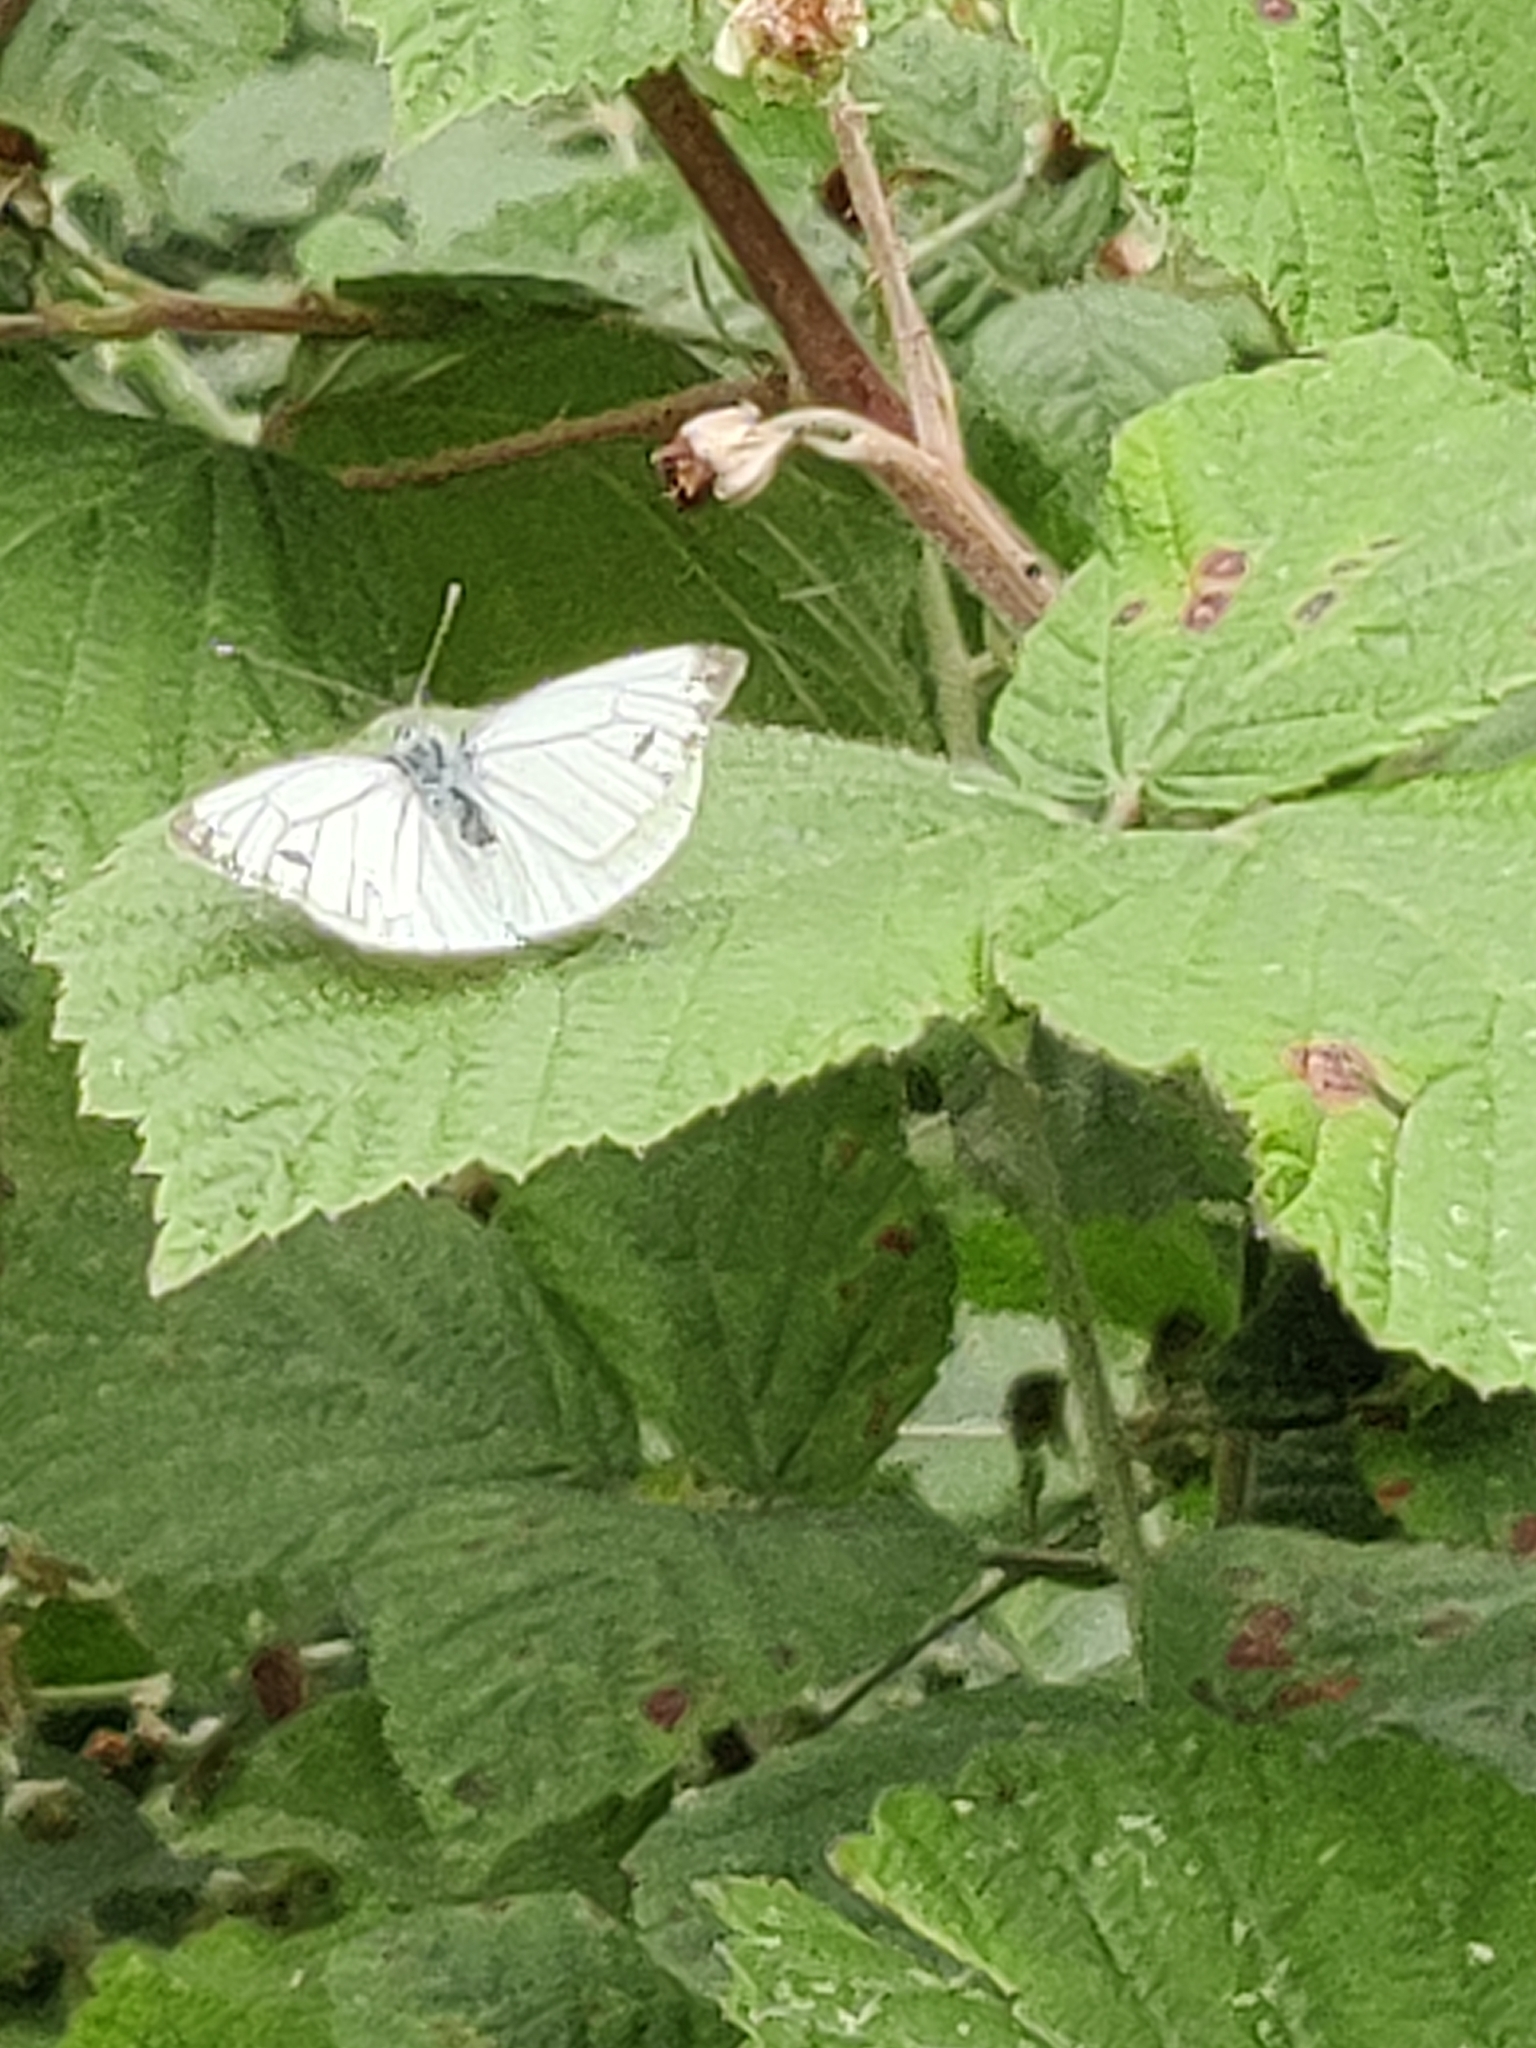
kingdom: Animalia
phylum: Arthropoda
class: Insecta
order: Lepidoptera
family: Pieridae
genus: Pieris
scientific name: Pieris napi
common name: Green-veined white
